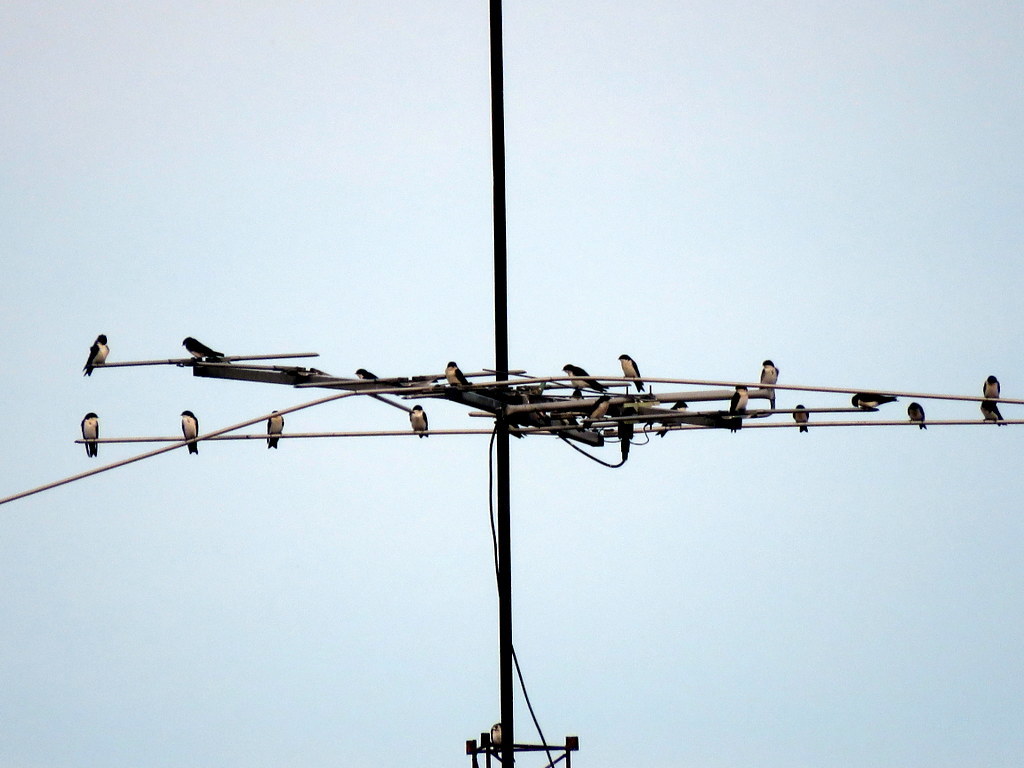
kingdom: Animalia
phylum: Chordata
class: Aves
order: Passeriformes
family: Hirundinidae
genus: Notiochelidon
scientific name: Notiochelidon cyanoleuca
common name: Blue-and-white swallow
